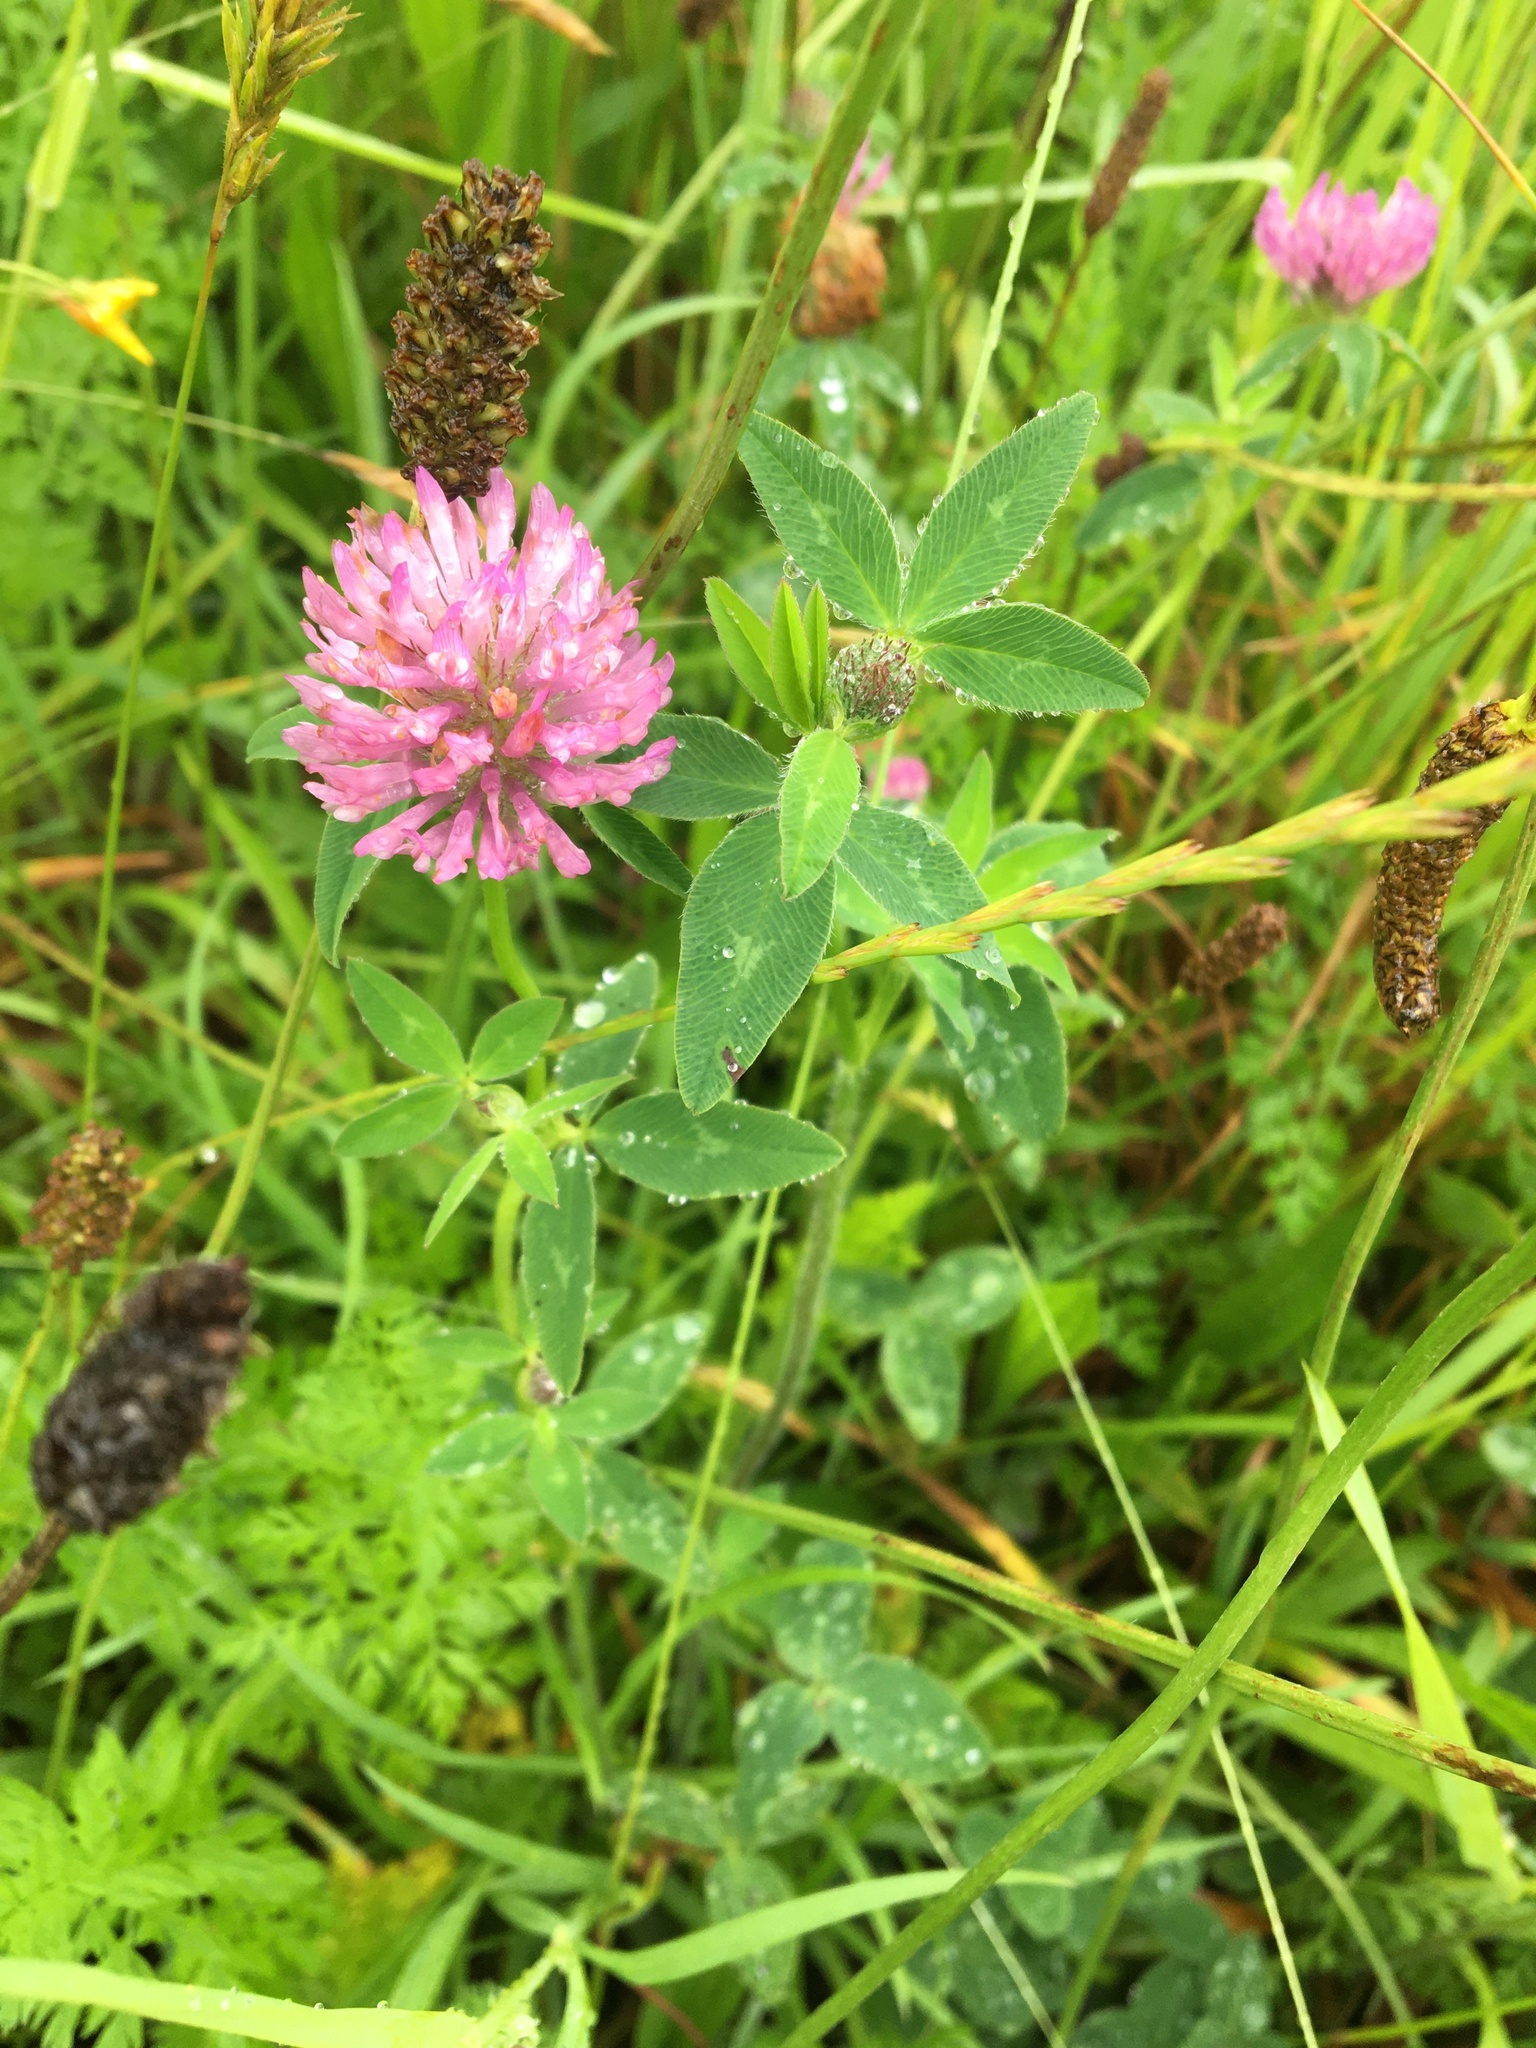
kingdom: Plantae
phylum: Tracheophyta
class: Magnoliopsida
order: Fabales
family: Fabaceae
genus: Trifolium
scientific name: Trifolium pratense
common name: Red clover
